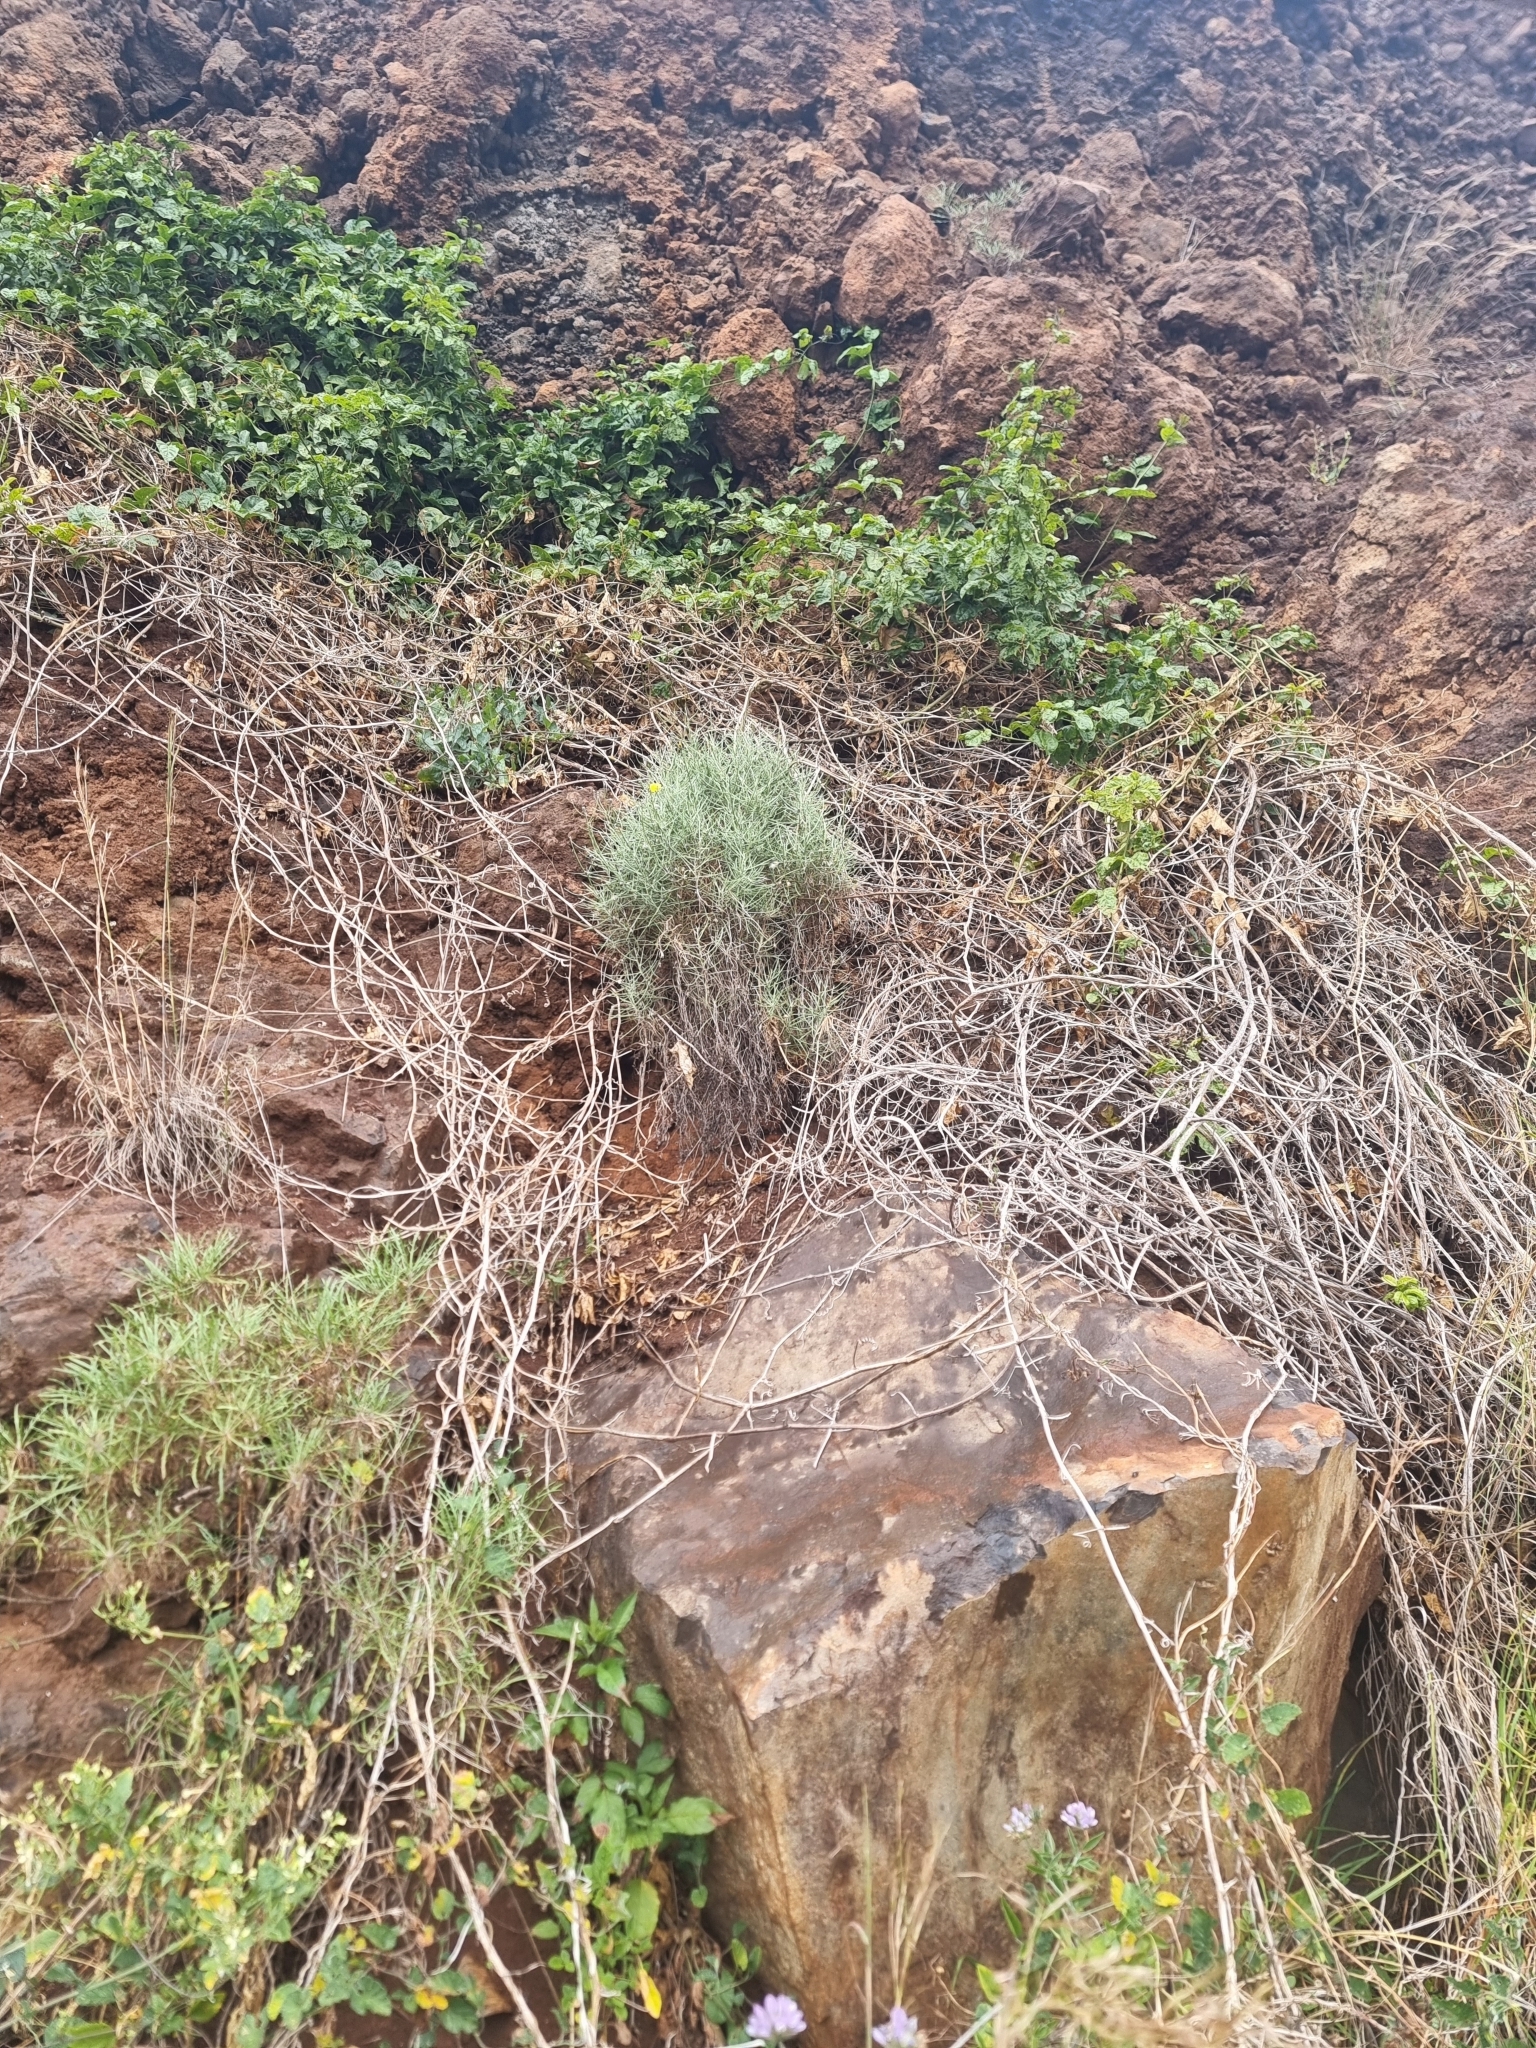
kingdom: Plantae
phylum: Tracheophyta
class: Magnoliopsida
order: Asterales
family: Asteraceae
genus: Tolpis
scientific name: Tolpis succulenta
